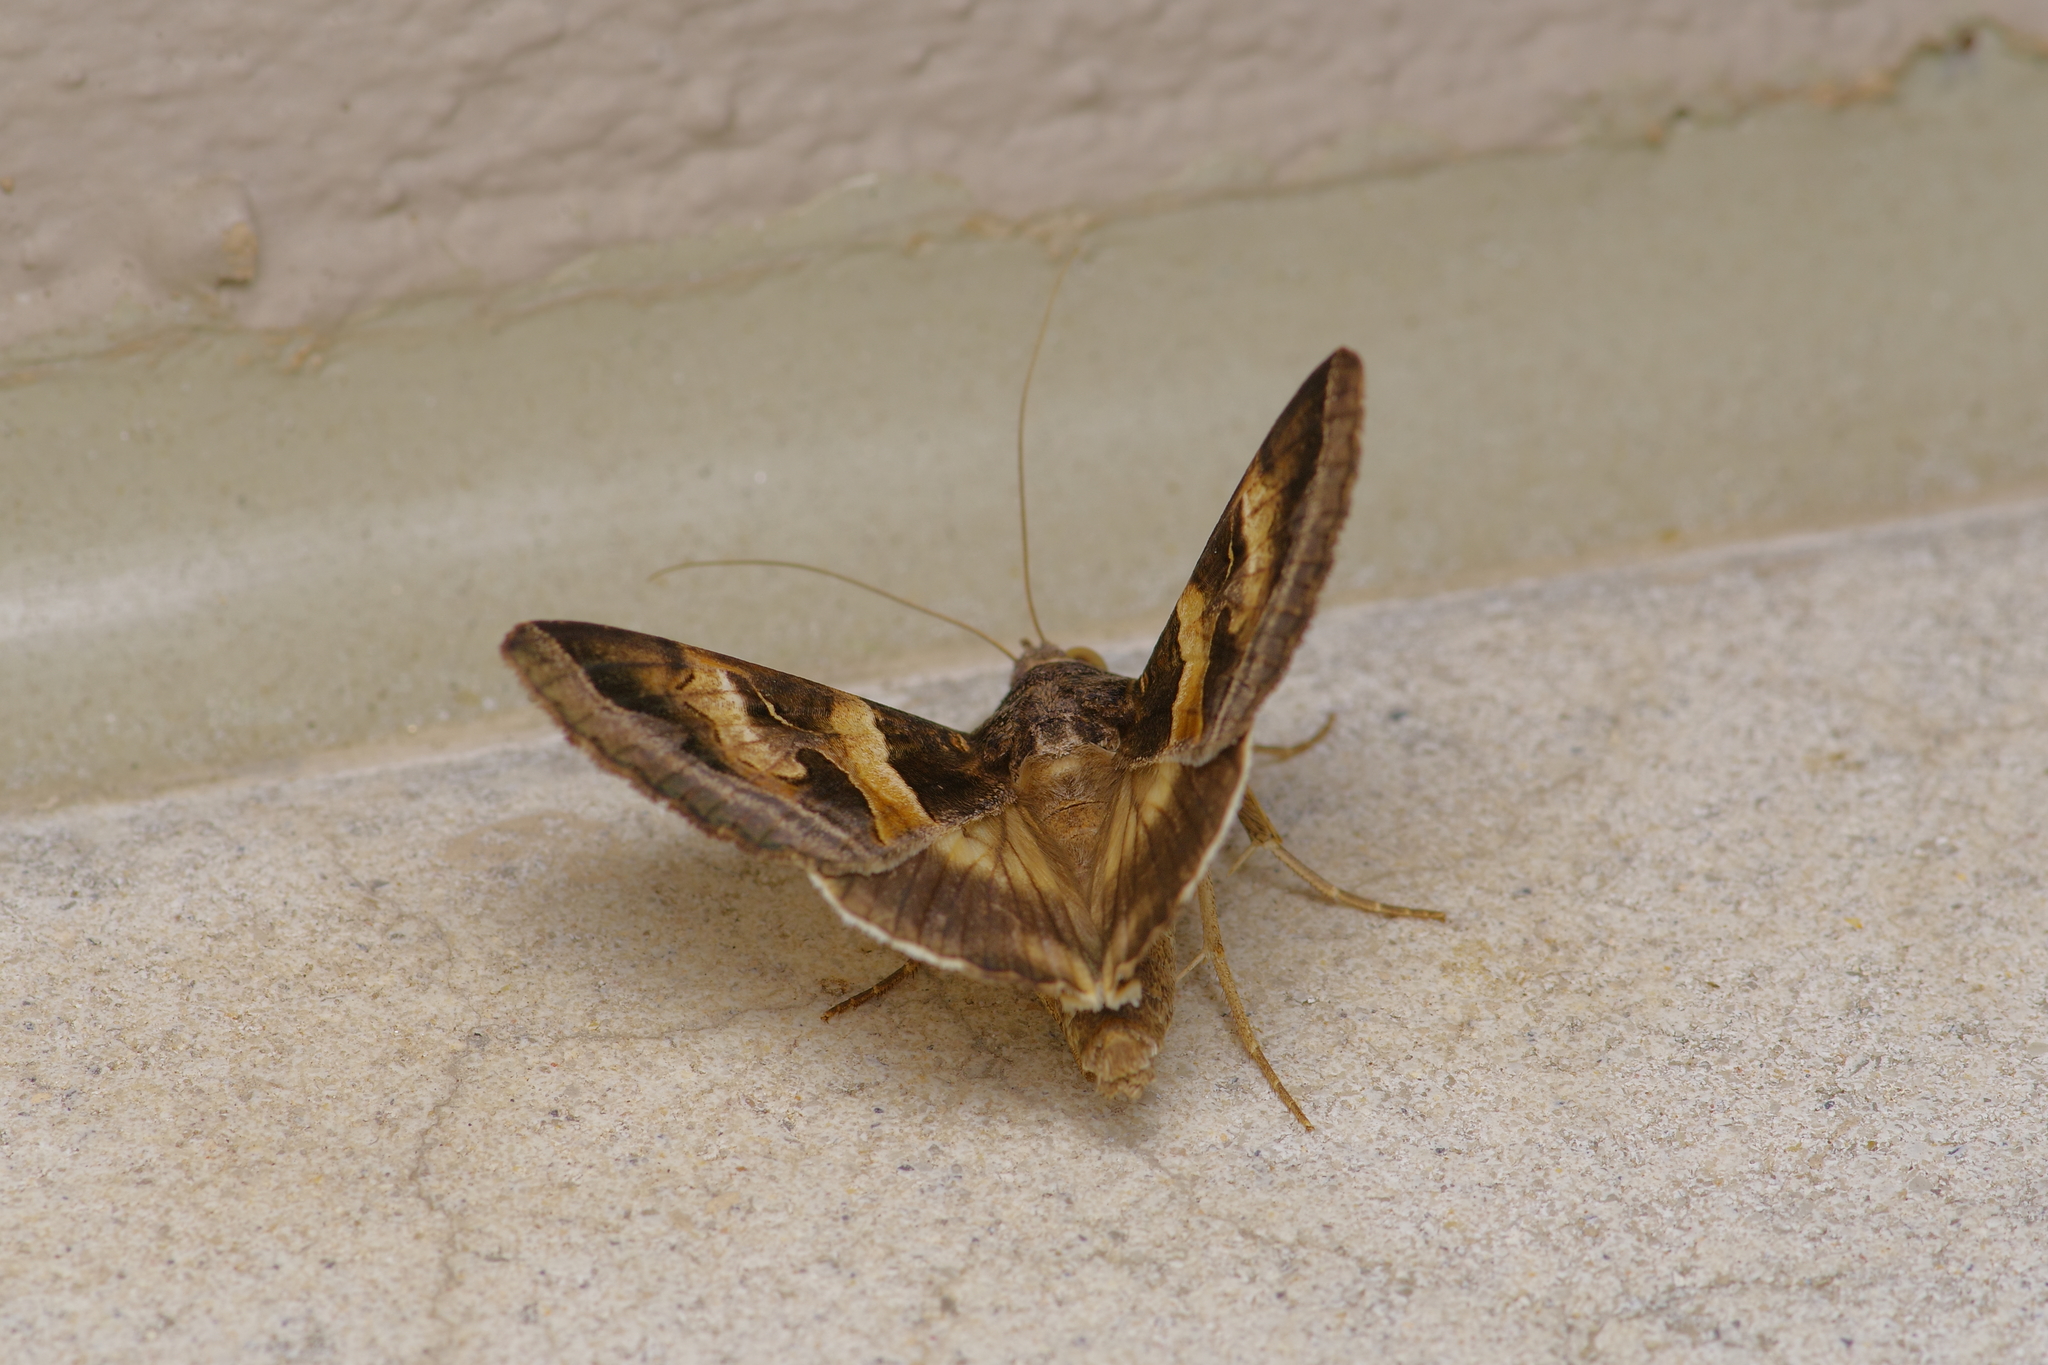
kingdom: Animalia
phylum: Arthropoda
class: Insecta
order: Lepidoptera
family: Erebidae
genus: Melipotis
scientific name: Melipotis indomita
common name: Moth
